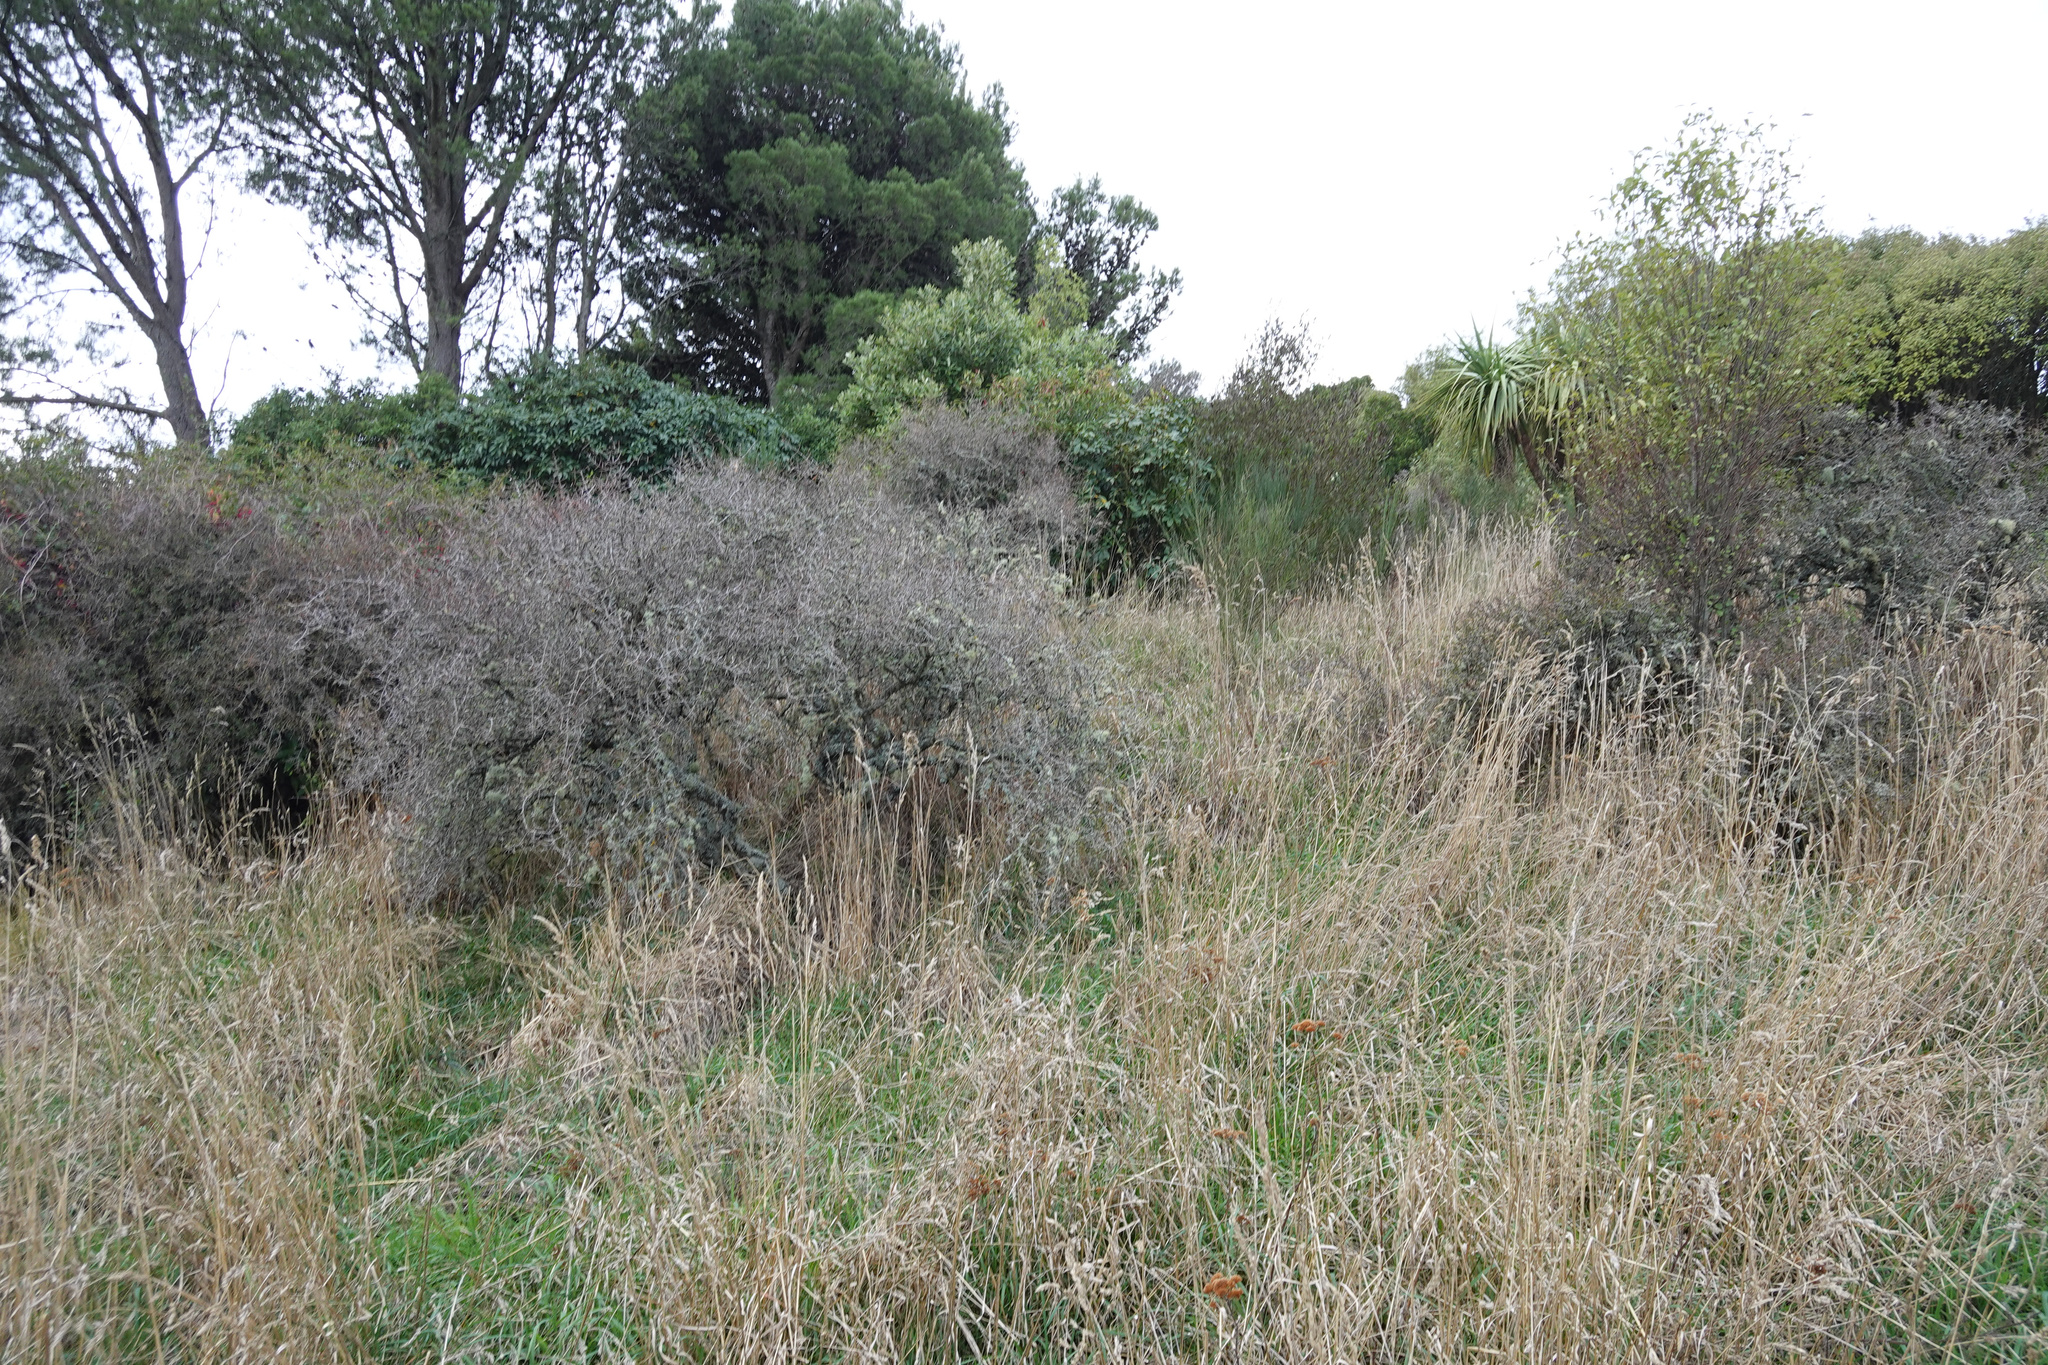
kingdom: Plantae
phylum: Tracheophyta
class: Magnoliopsida
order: Rosales
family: Rhamnaceae
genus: Discaria
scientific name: Discaria toumatou
